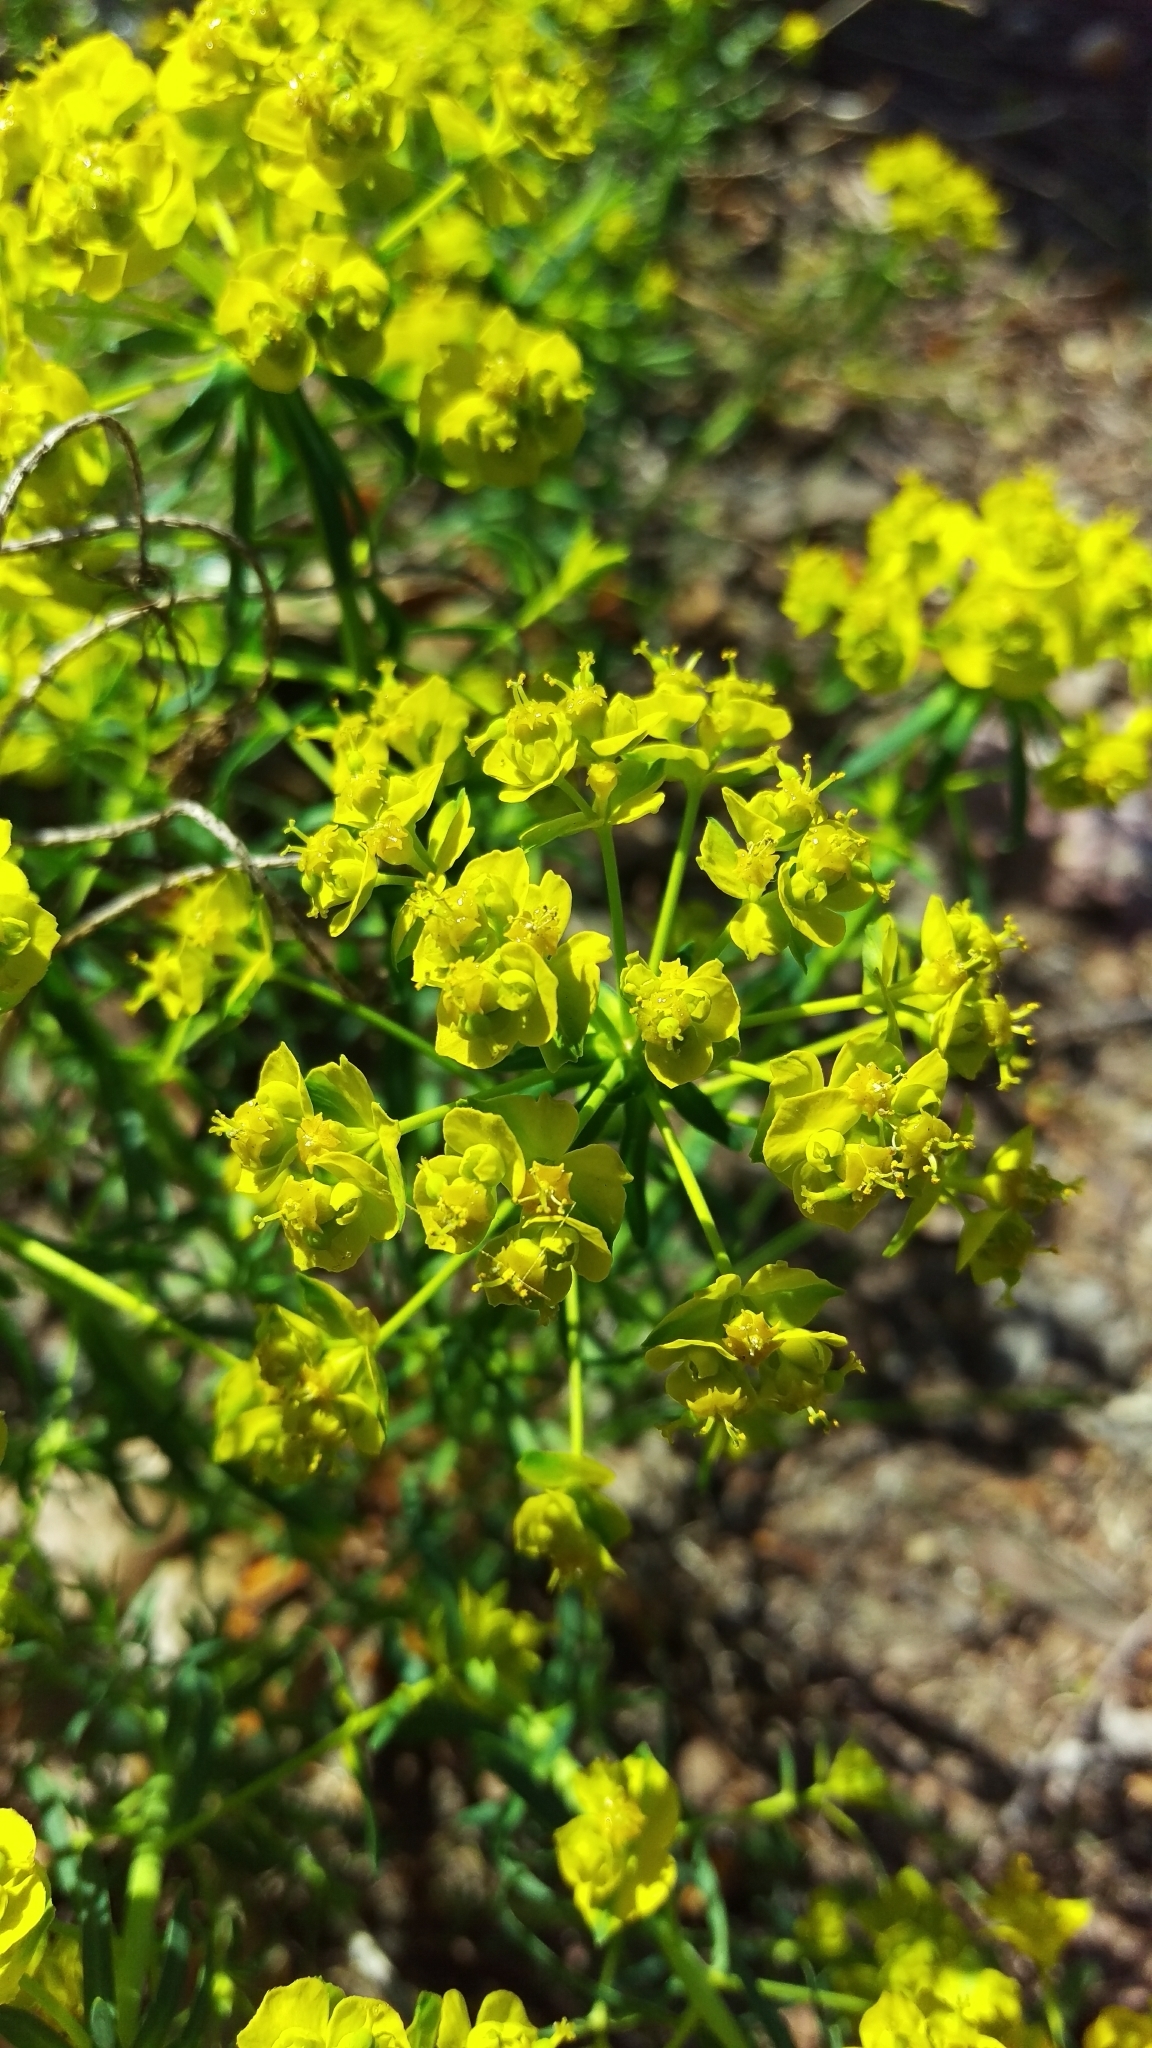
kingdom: Plantae
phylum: Tracheophyta
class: Magnoliopsida
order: Malpighiales
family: Euphorbiaceae
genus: Euphorbia
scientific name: Euphorbia cyparissias
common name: Cypress spurge
